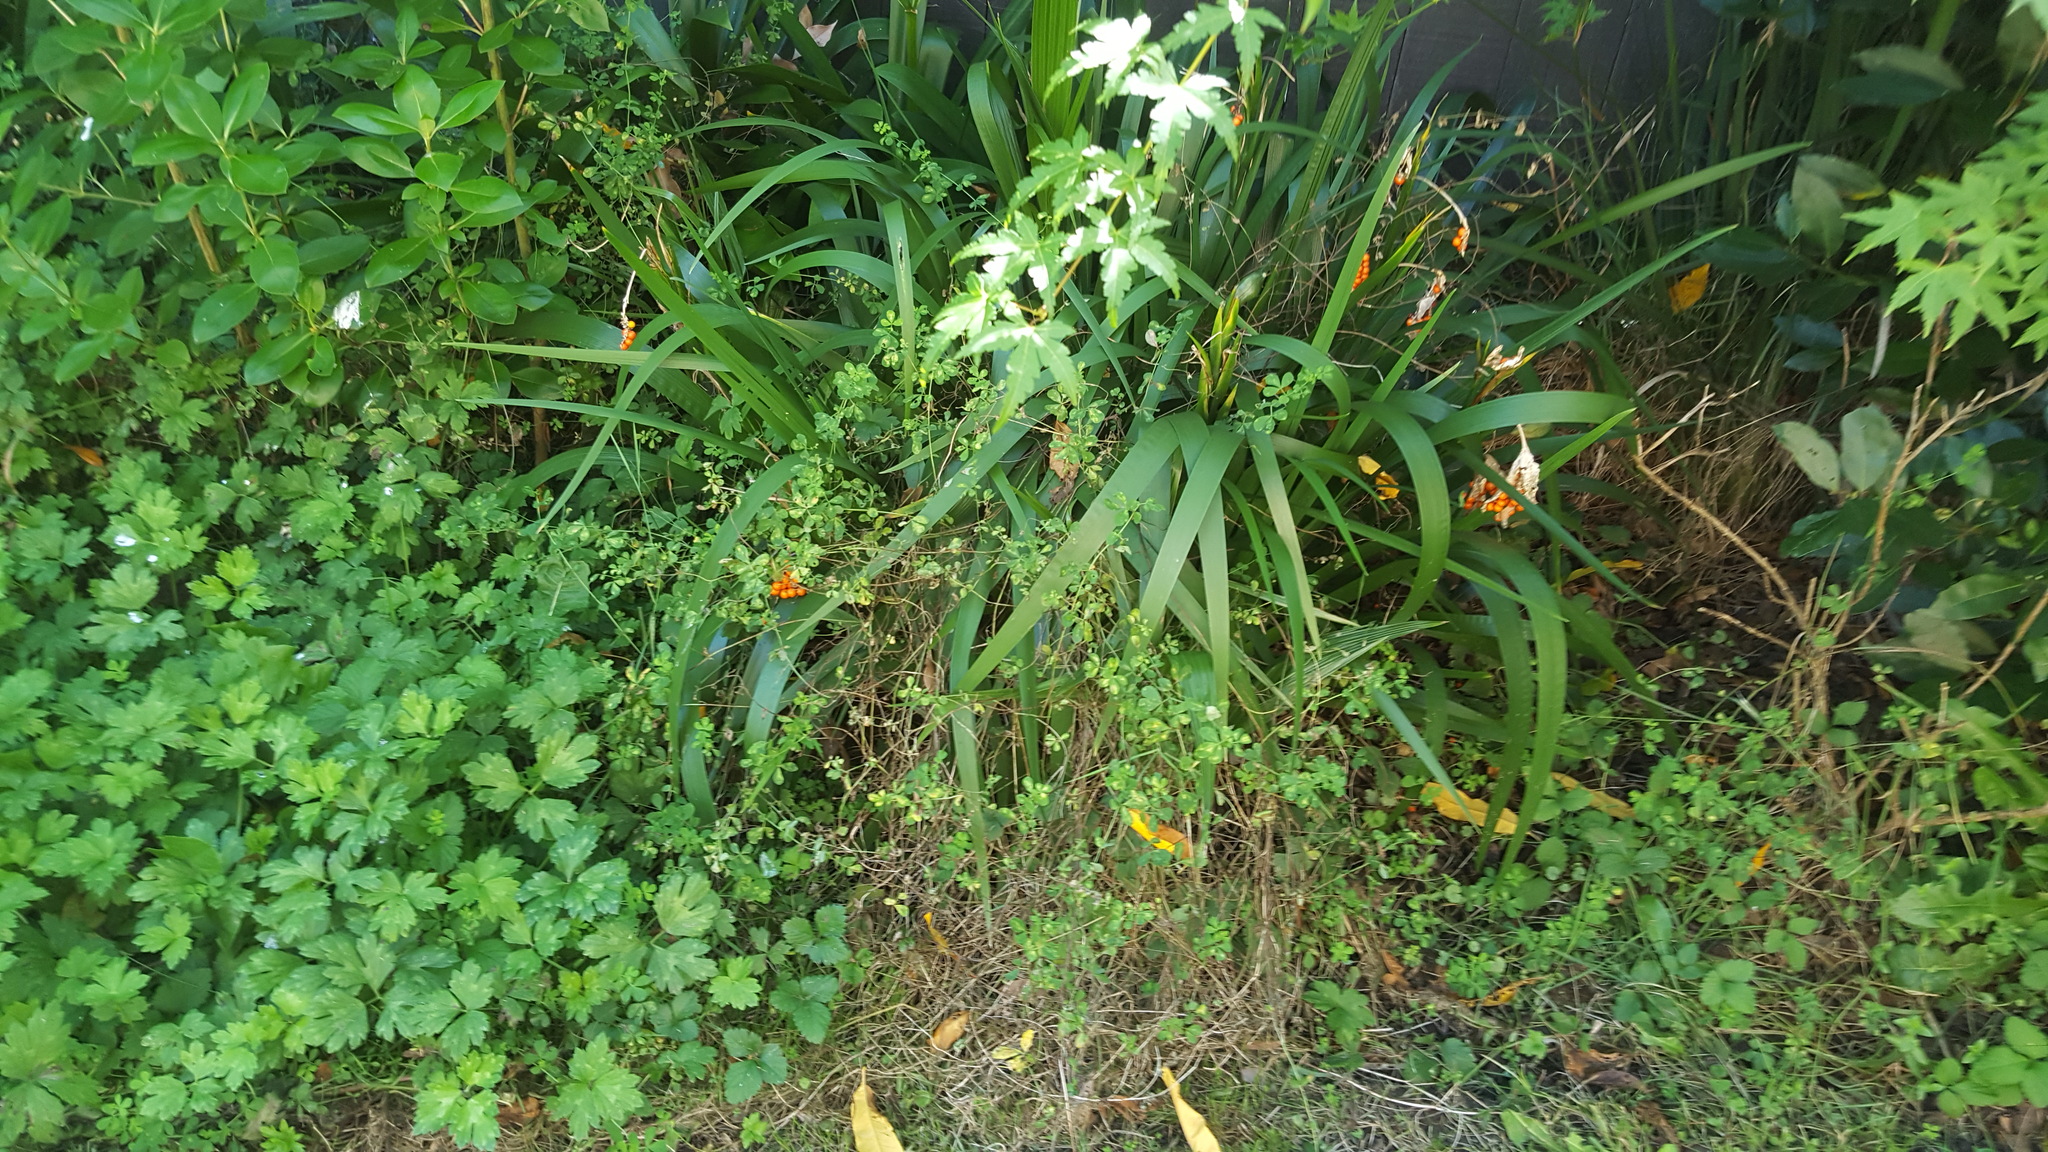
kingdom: Plantae
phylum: Tracheophyta
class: Liliopsida
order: Asparagales
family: Iridaceae
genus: Iris
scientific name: Iris foetidissima
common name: Stinking iris
